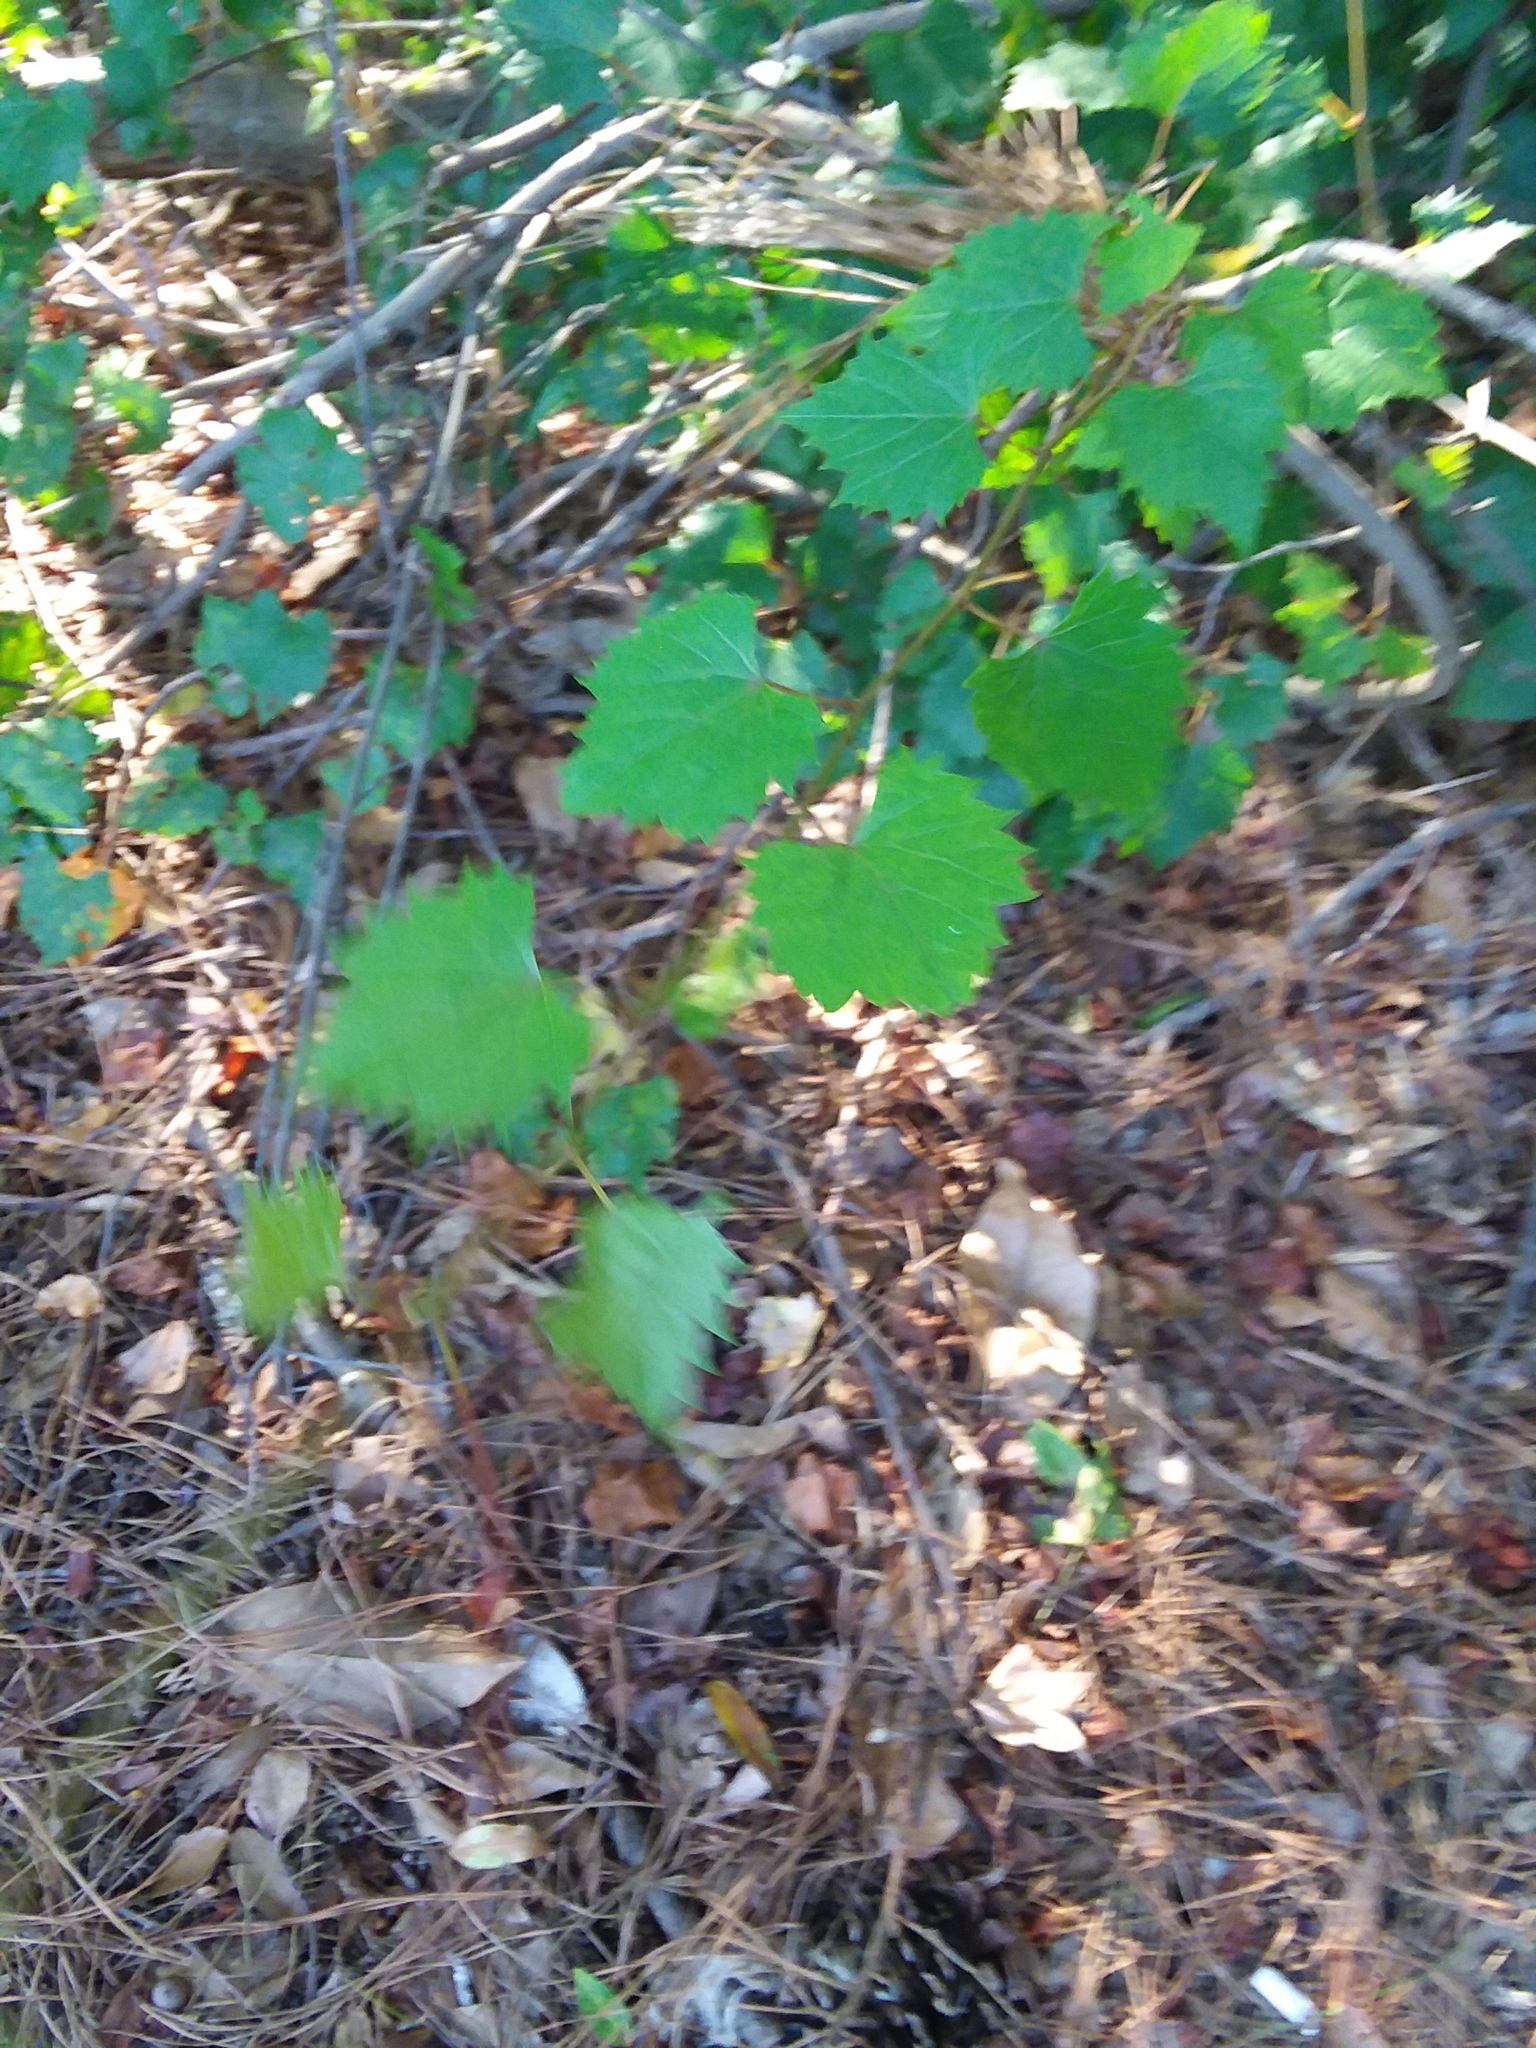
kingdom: Plantae
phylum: Tracheophyta
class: Magnoliopsida
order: Vitales
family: Vitaceae
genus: Vitis
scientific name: Vitis rotundifolia
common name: Muscadine grape
